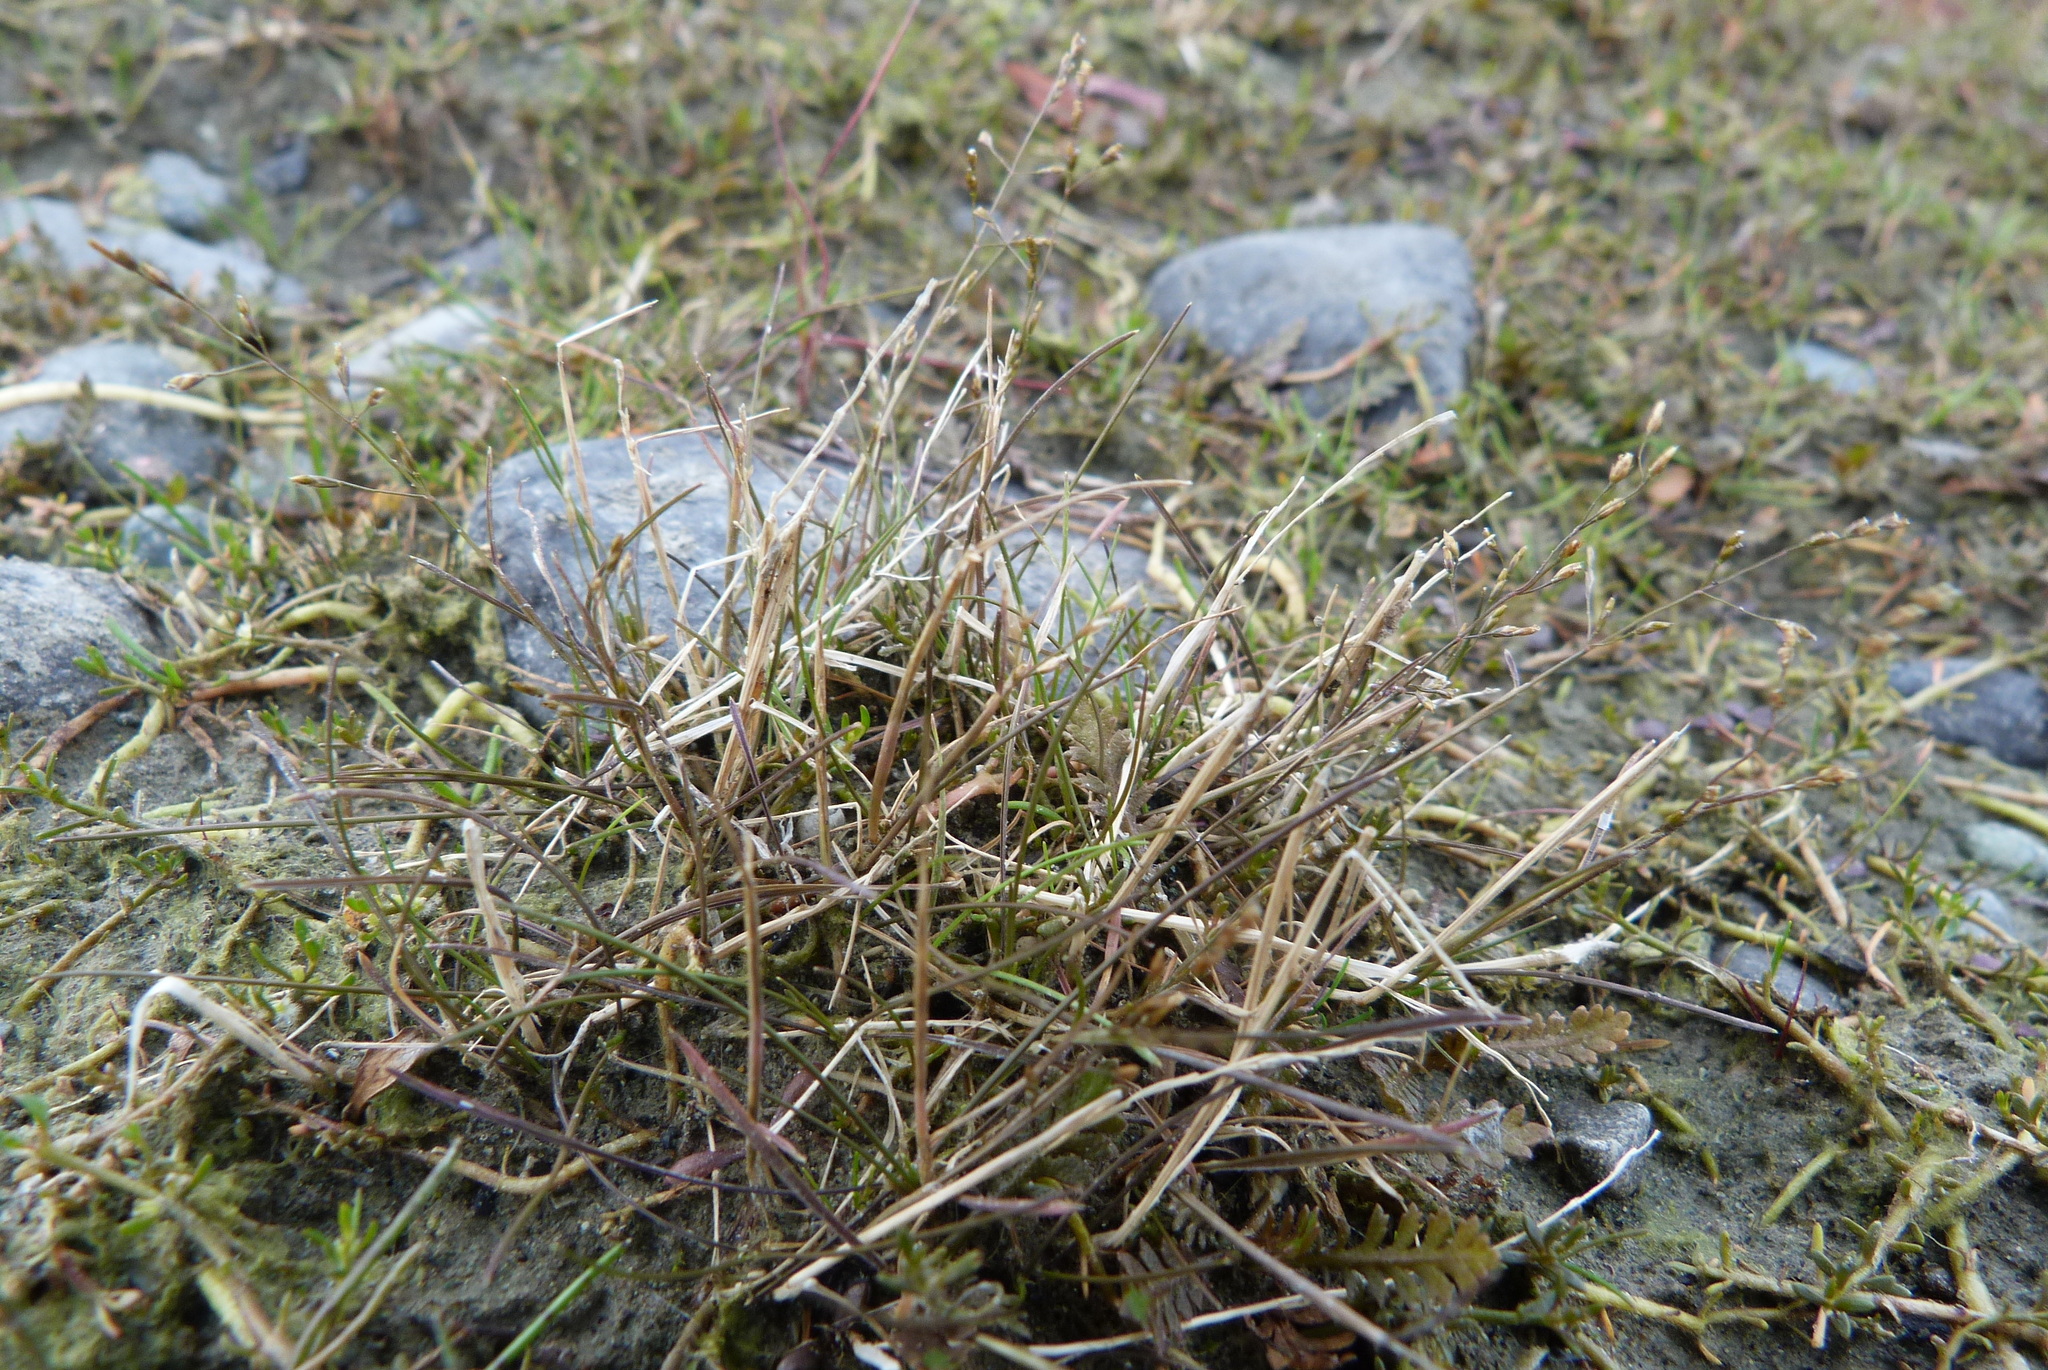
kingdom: Plantae
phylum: Tracheophyta
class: Magnoliopsida
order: Lamiales
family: Scrophulariaceae
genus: Limosella
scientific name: Limosella australis
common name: Welsh mudwort
